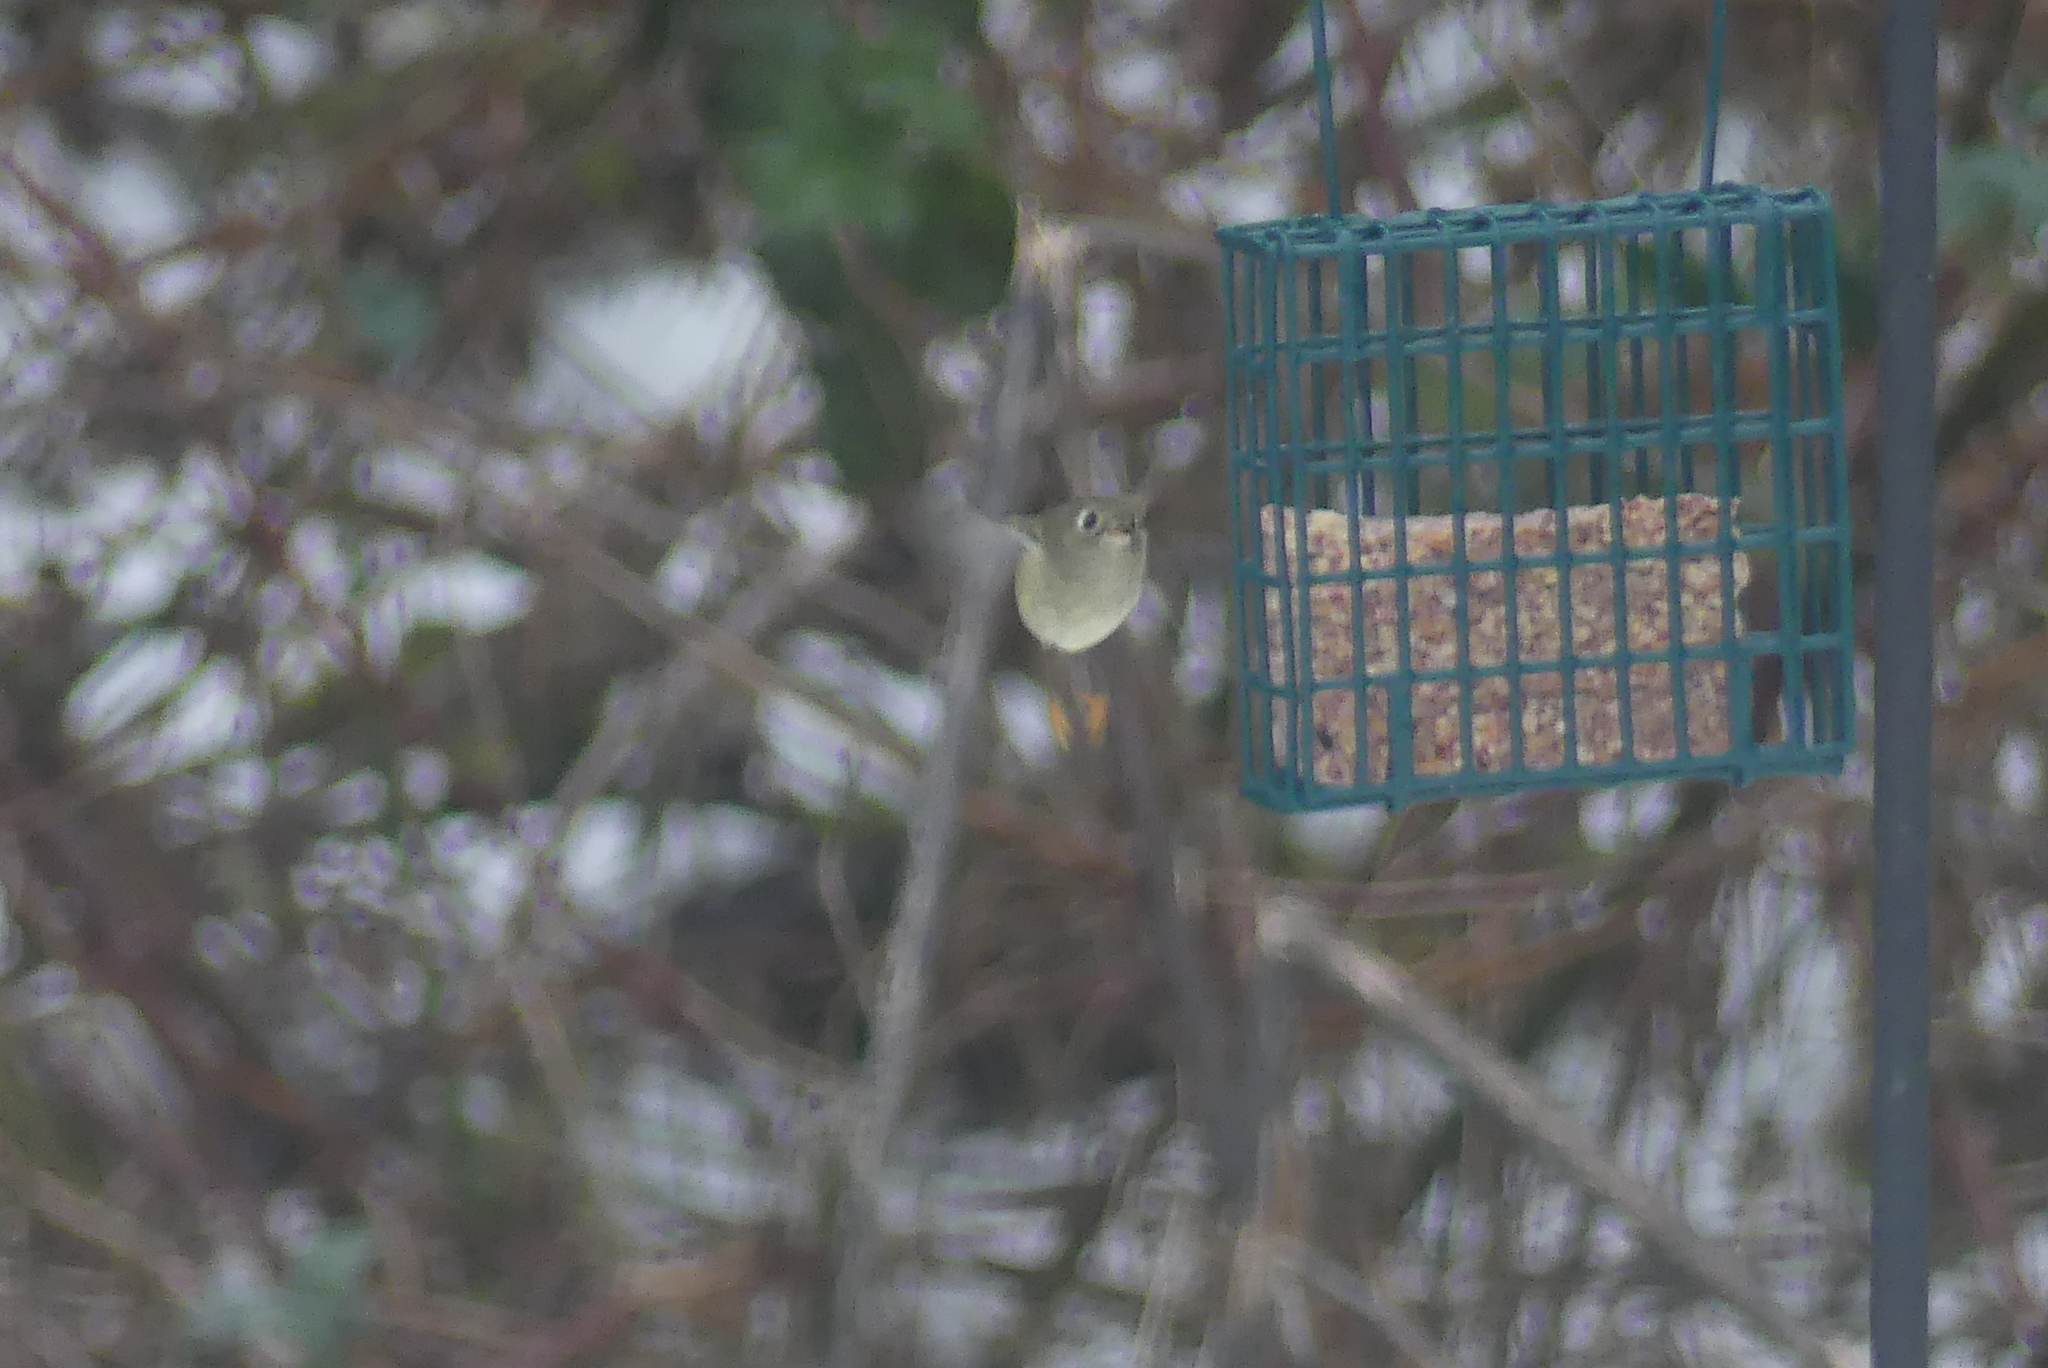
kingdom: Animalia
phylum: Chordata
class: Aves
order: Passeriformes
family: Regulidae
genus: Regulus
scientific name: Regulus calendula
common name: Ruby-crowned kinglet
